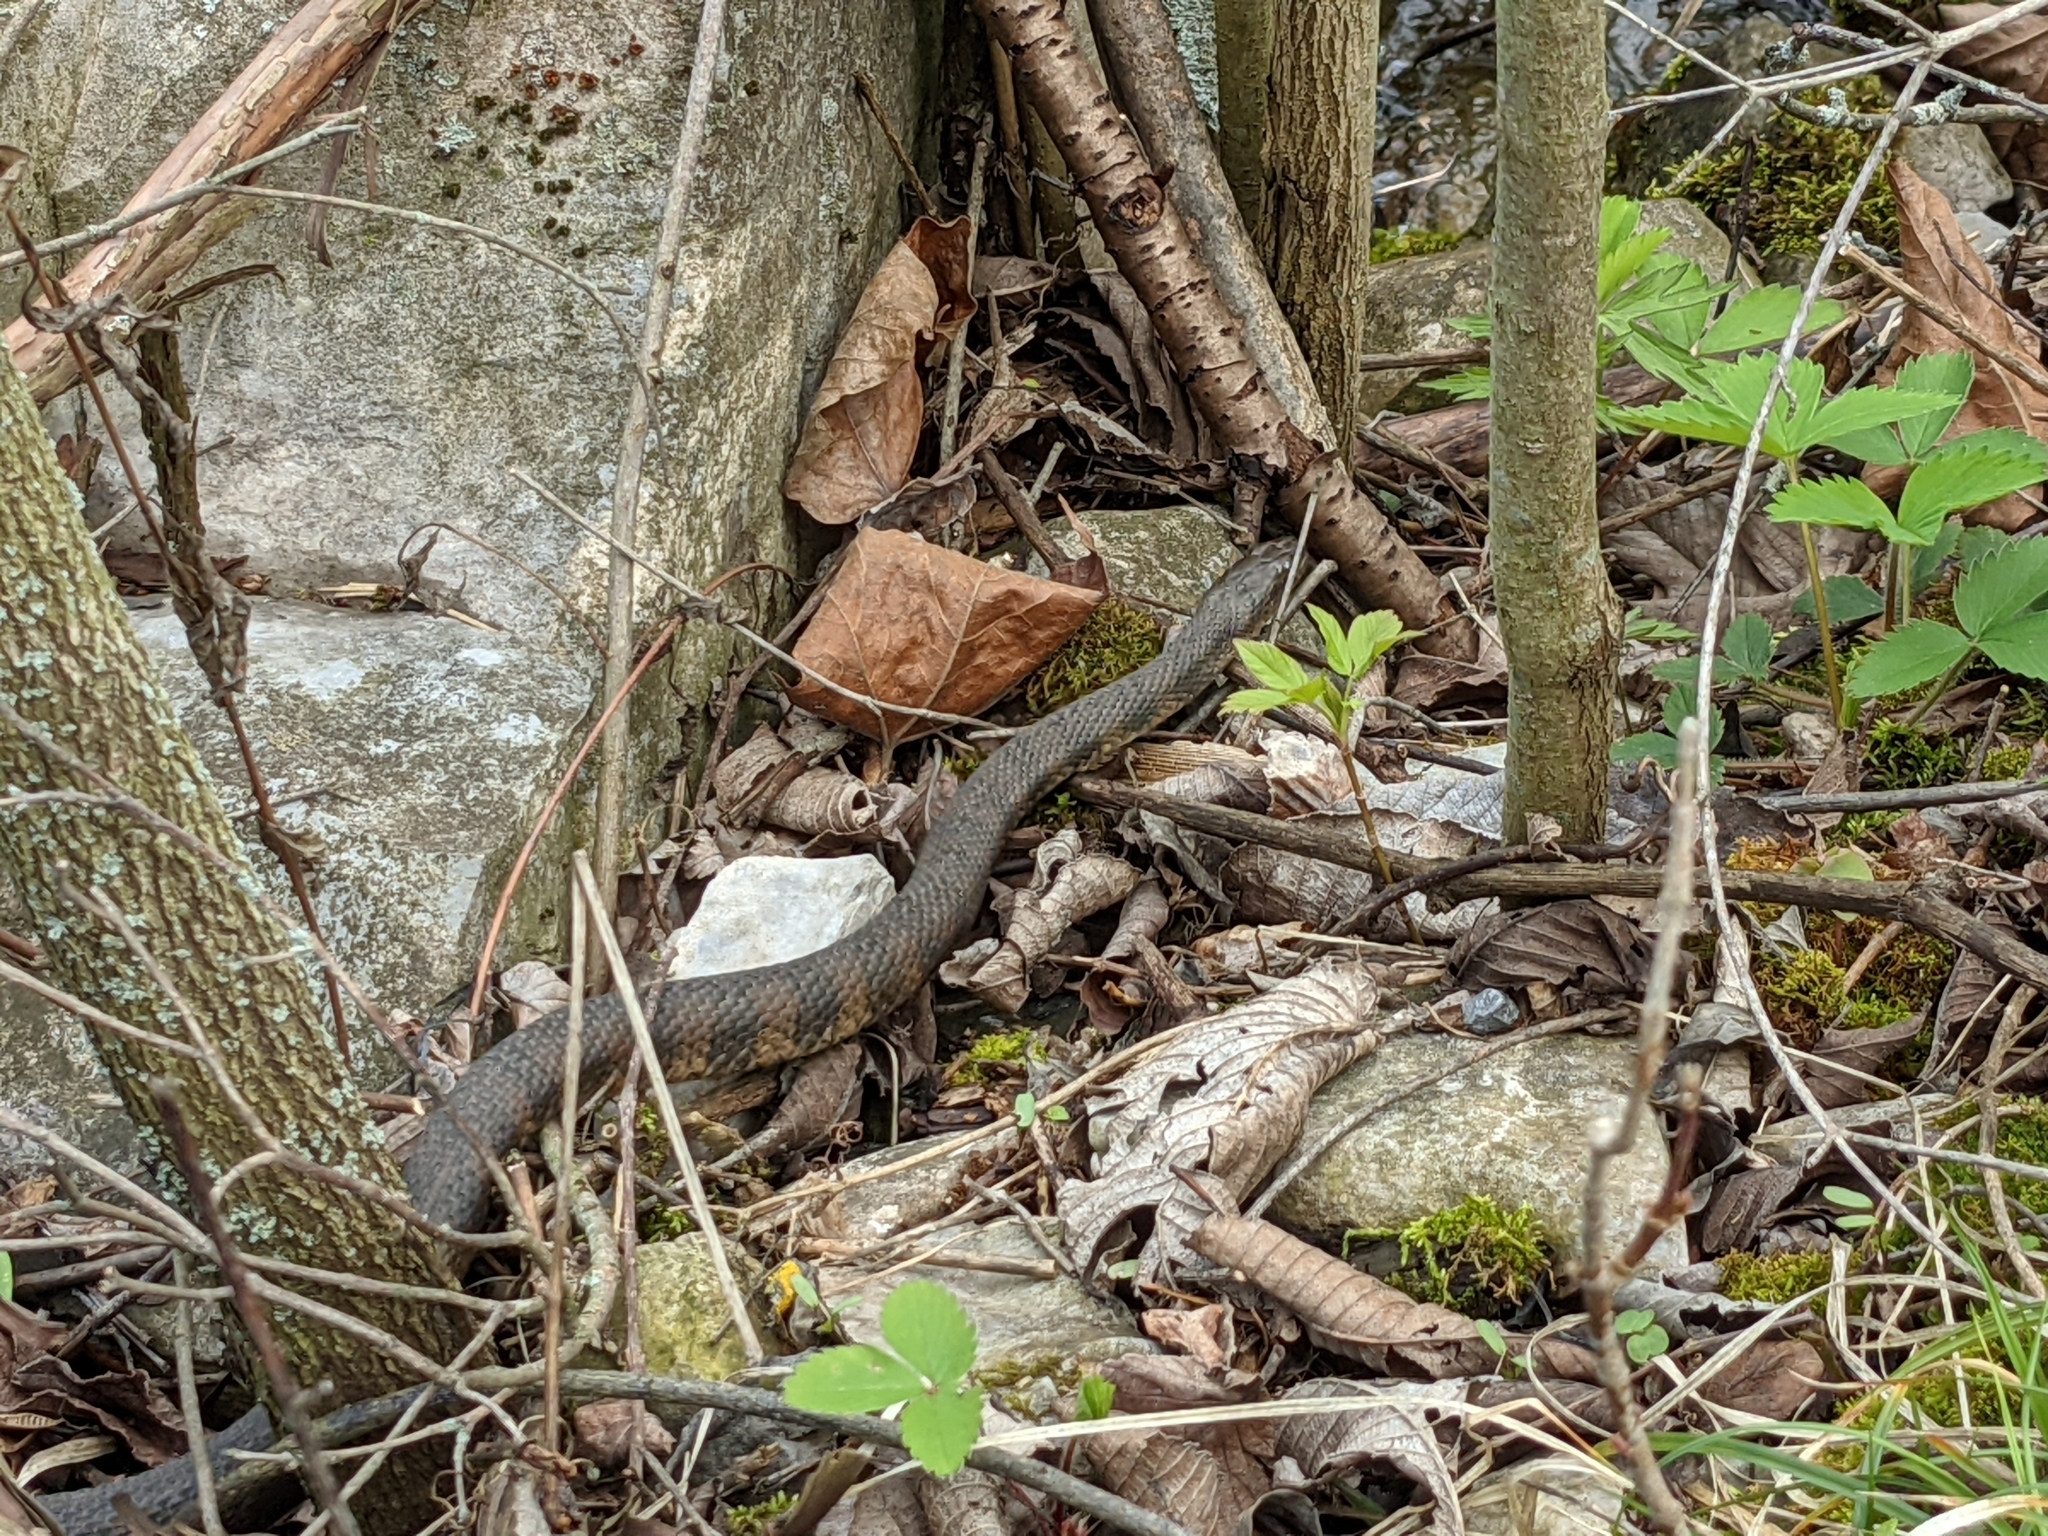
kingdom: Animalia
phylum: Chordata
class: Squamata
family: Colubridae
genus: Nerodia
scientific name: Nerodia sipedon
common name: Northern water snake
